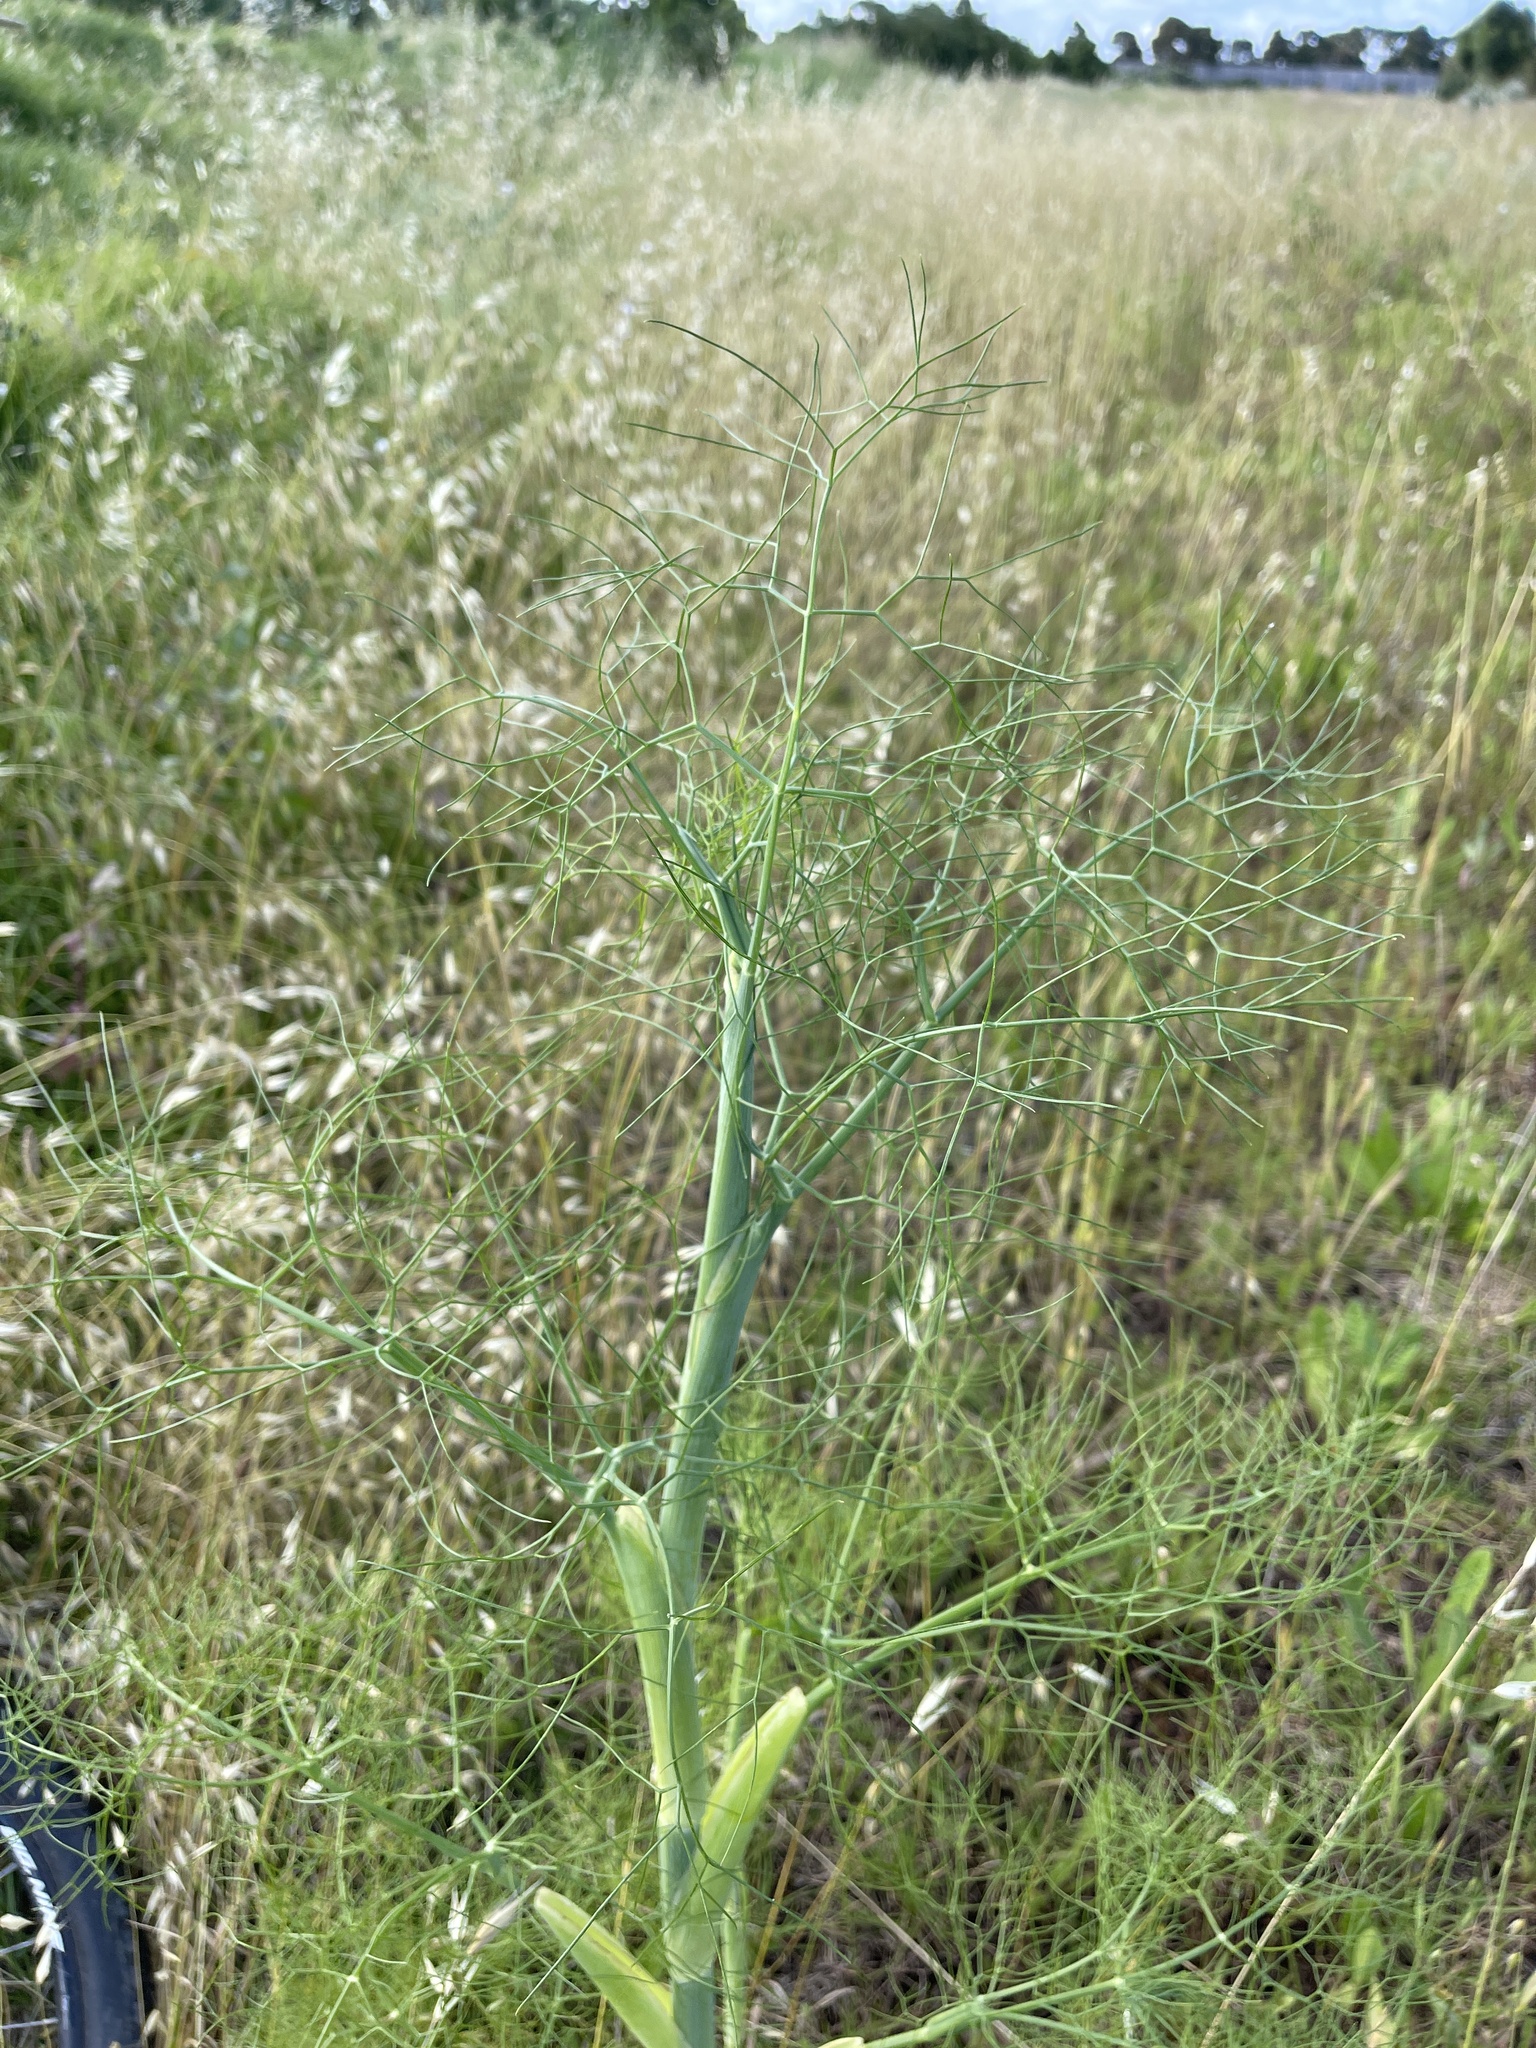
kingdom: Plantae
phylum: Tracheophyta
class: Magnoliopsida
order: Apiales
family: Apiaceae
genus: Foeniculum
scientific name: Foeniculum vulgare
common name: Fennel
